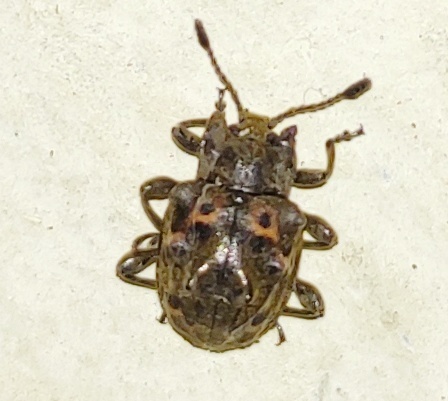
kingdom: Animalia
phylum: Arthropoda
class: Insecta
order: Coleoptera
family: Endomychidae
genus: Spathomeles
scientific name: Spathomeles
